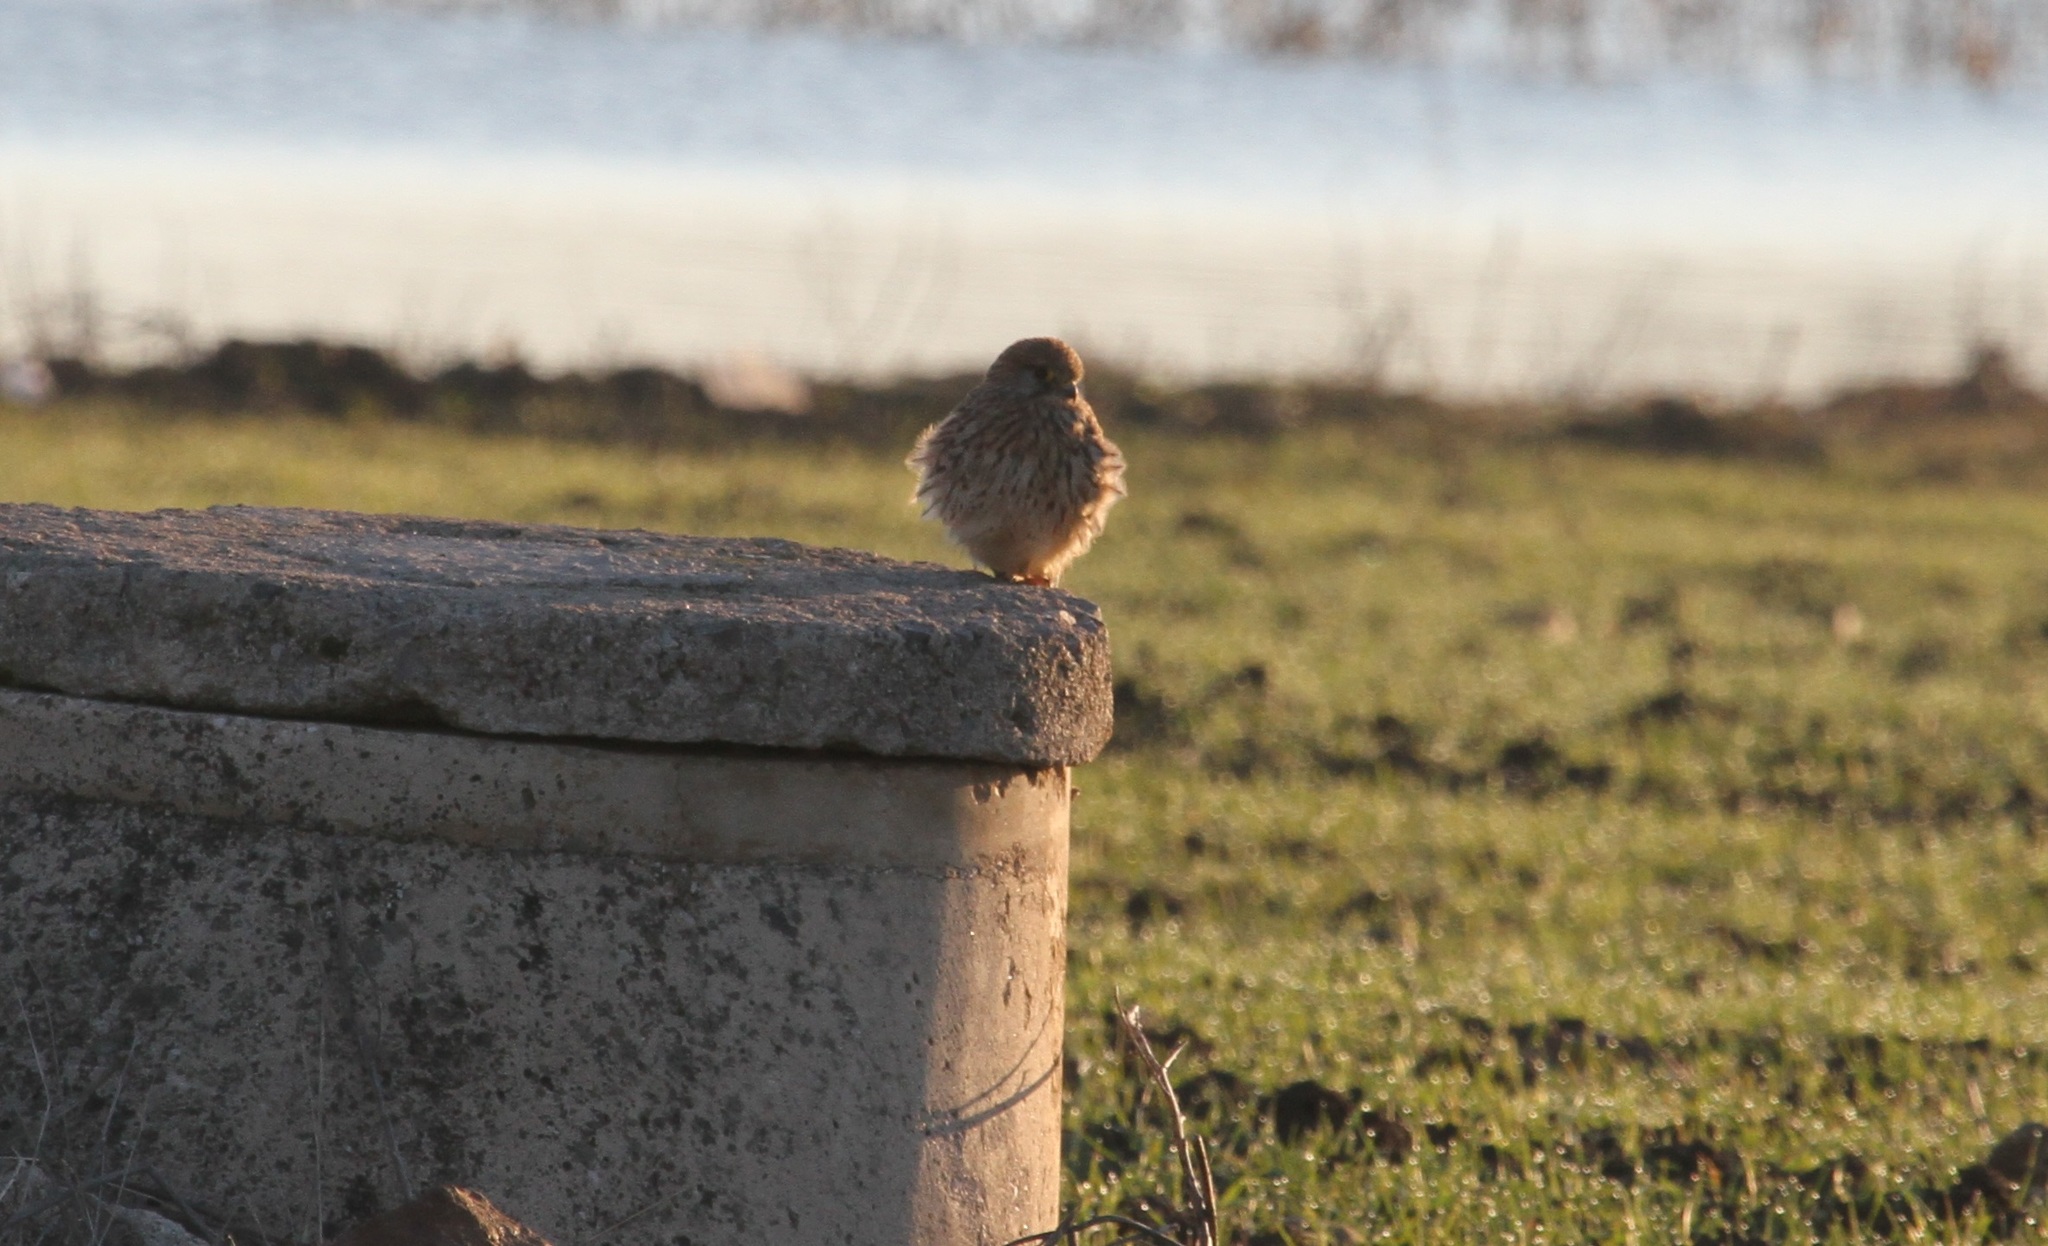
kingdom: Animalia
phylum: Chordata
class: Aves
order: Falconiformes
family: Falconidae
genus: Falco
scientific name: Falco tinnunculus
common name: Common kestrel
